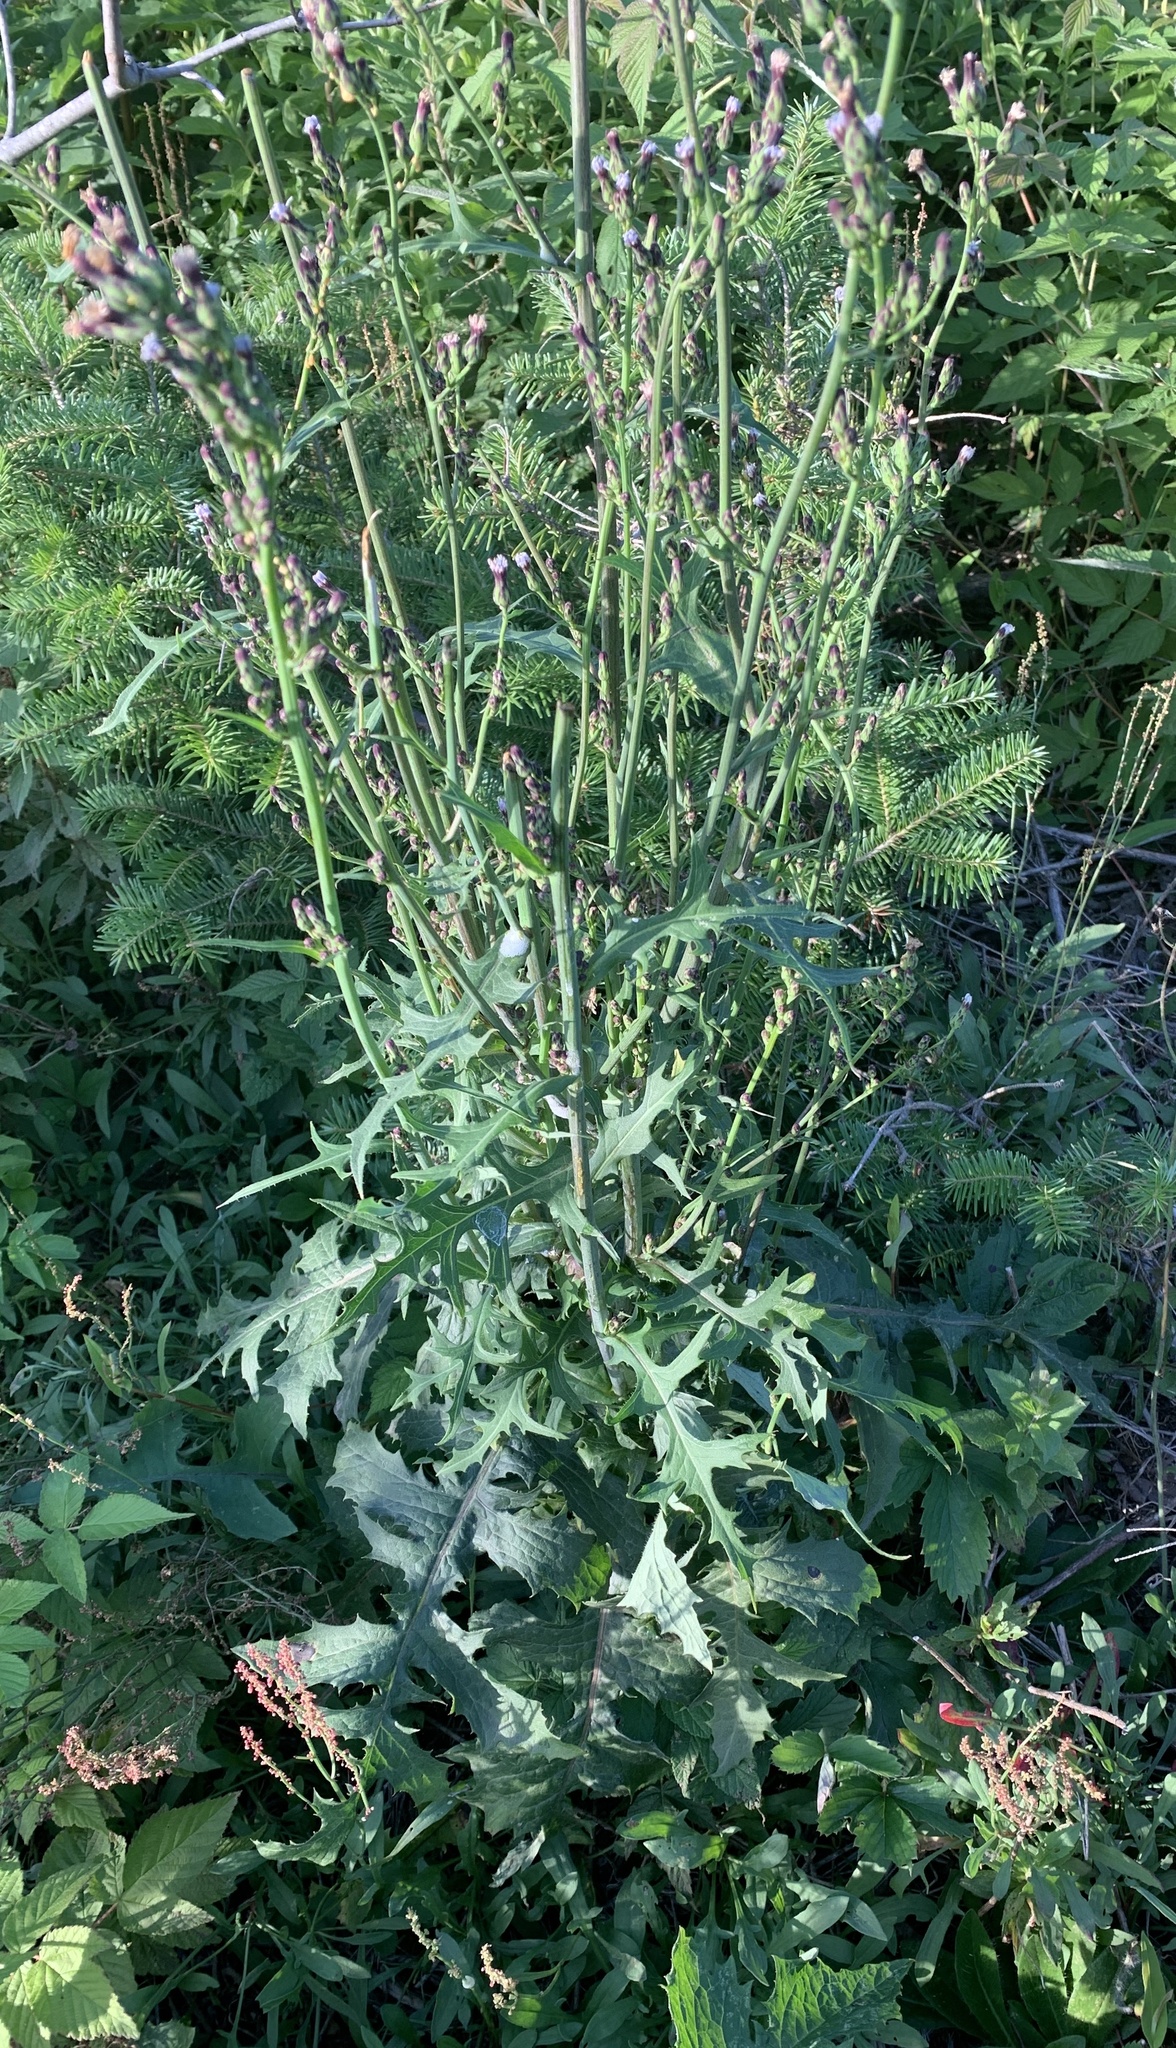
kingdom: Plantae
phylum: Tracheophyta
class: Magnoliopsida
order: Asterales
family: Asteraceae
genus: Lactuca
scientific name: Lactuca biennis
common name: Blue wood lettuce
